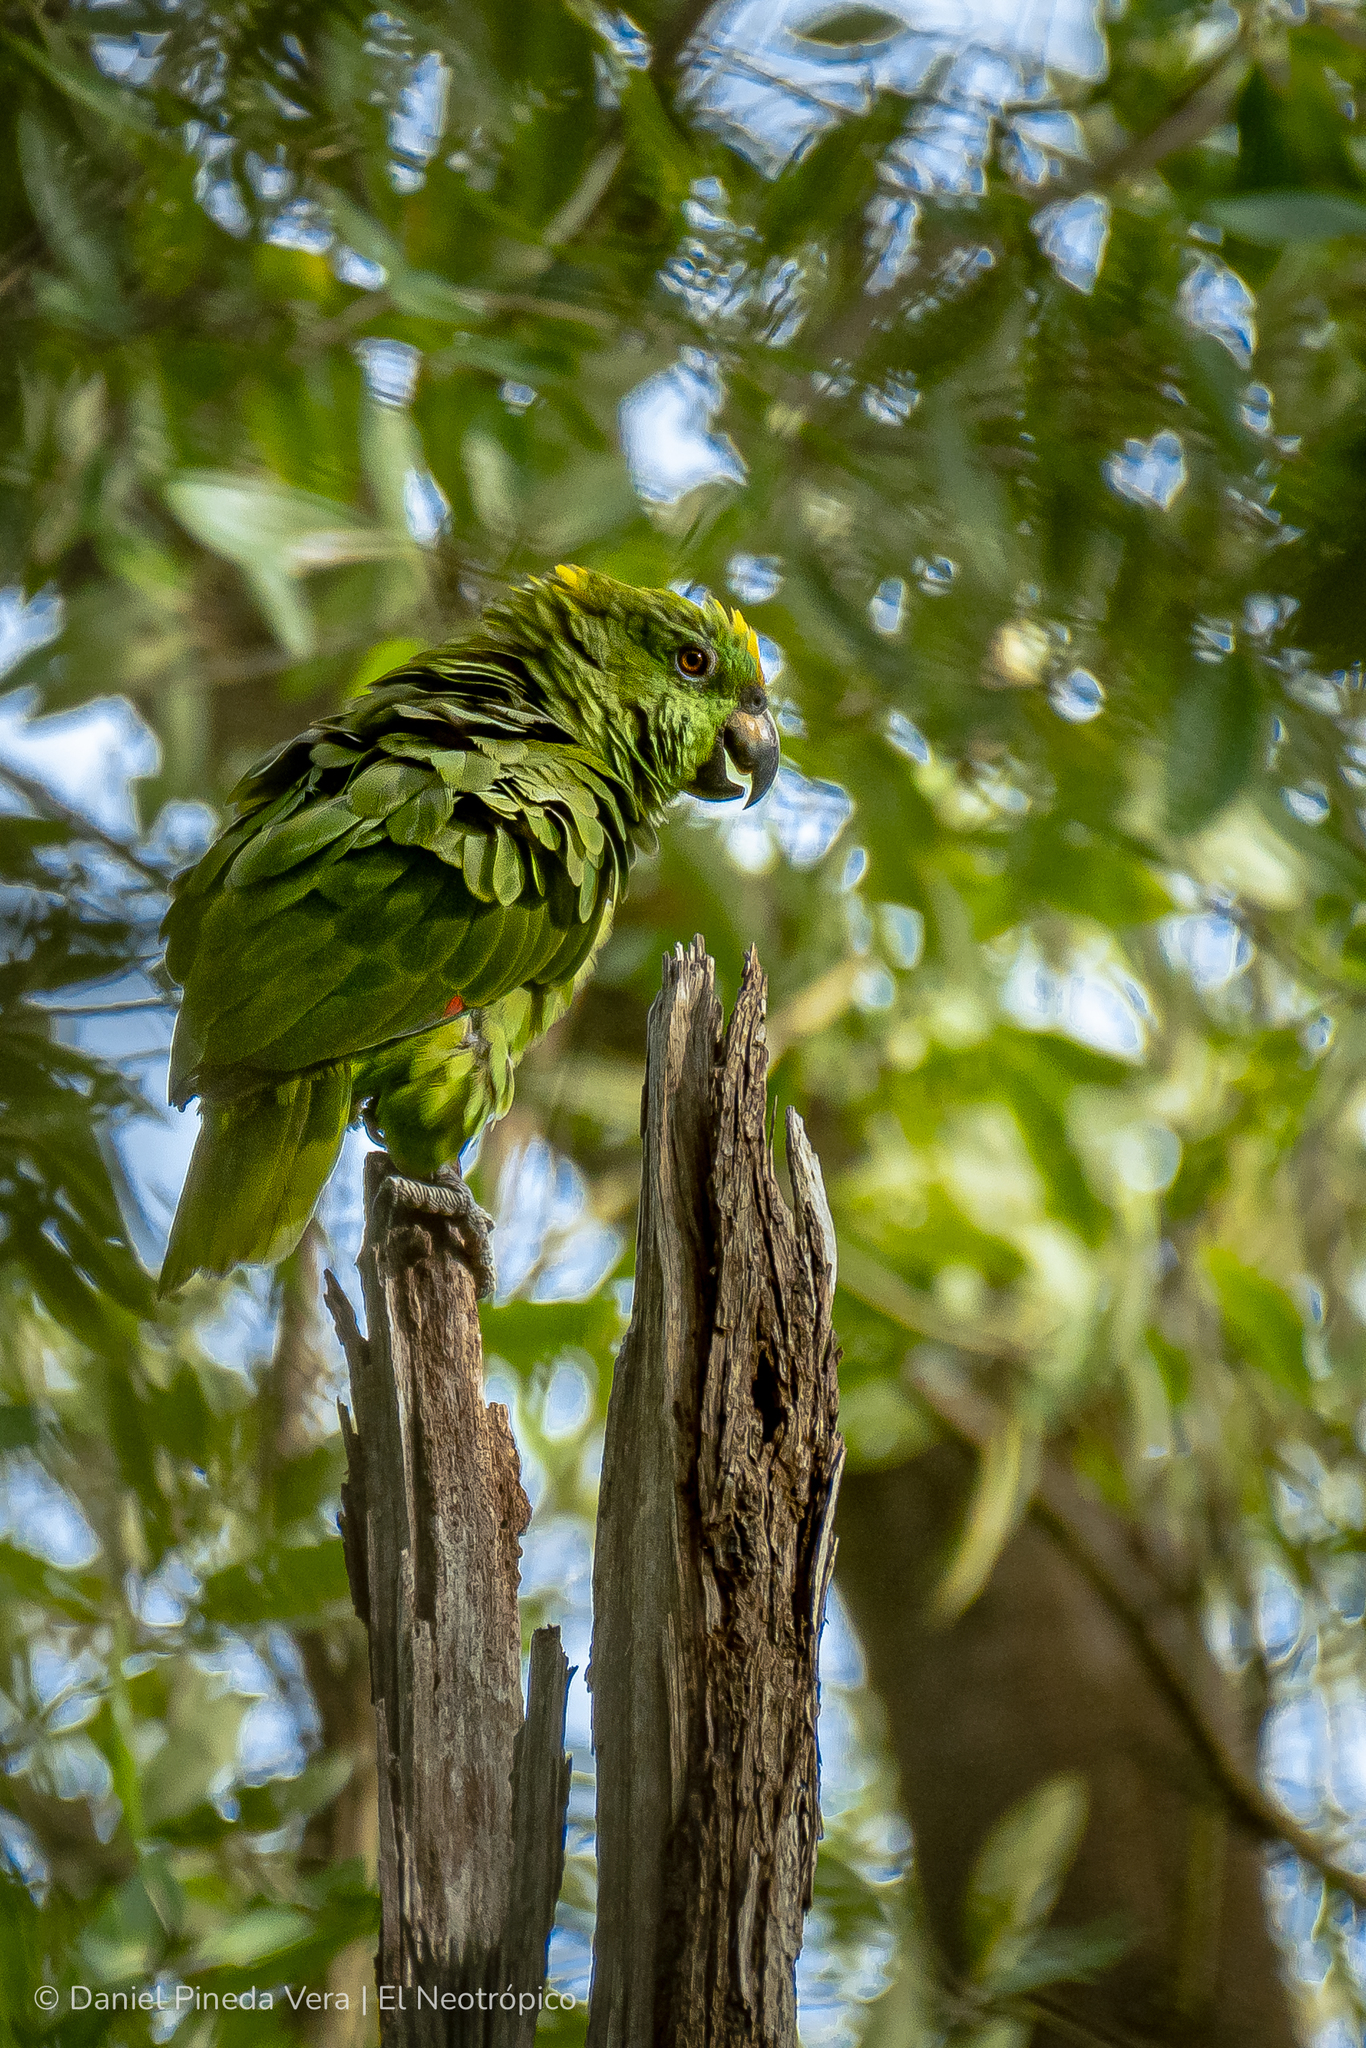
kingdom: Animalia
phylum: Chordata
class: Aves
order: Psittaciformes
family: Psittacidae
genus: Amazona
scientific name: Amazona auropalliata
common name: Yellow-naped amazon
